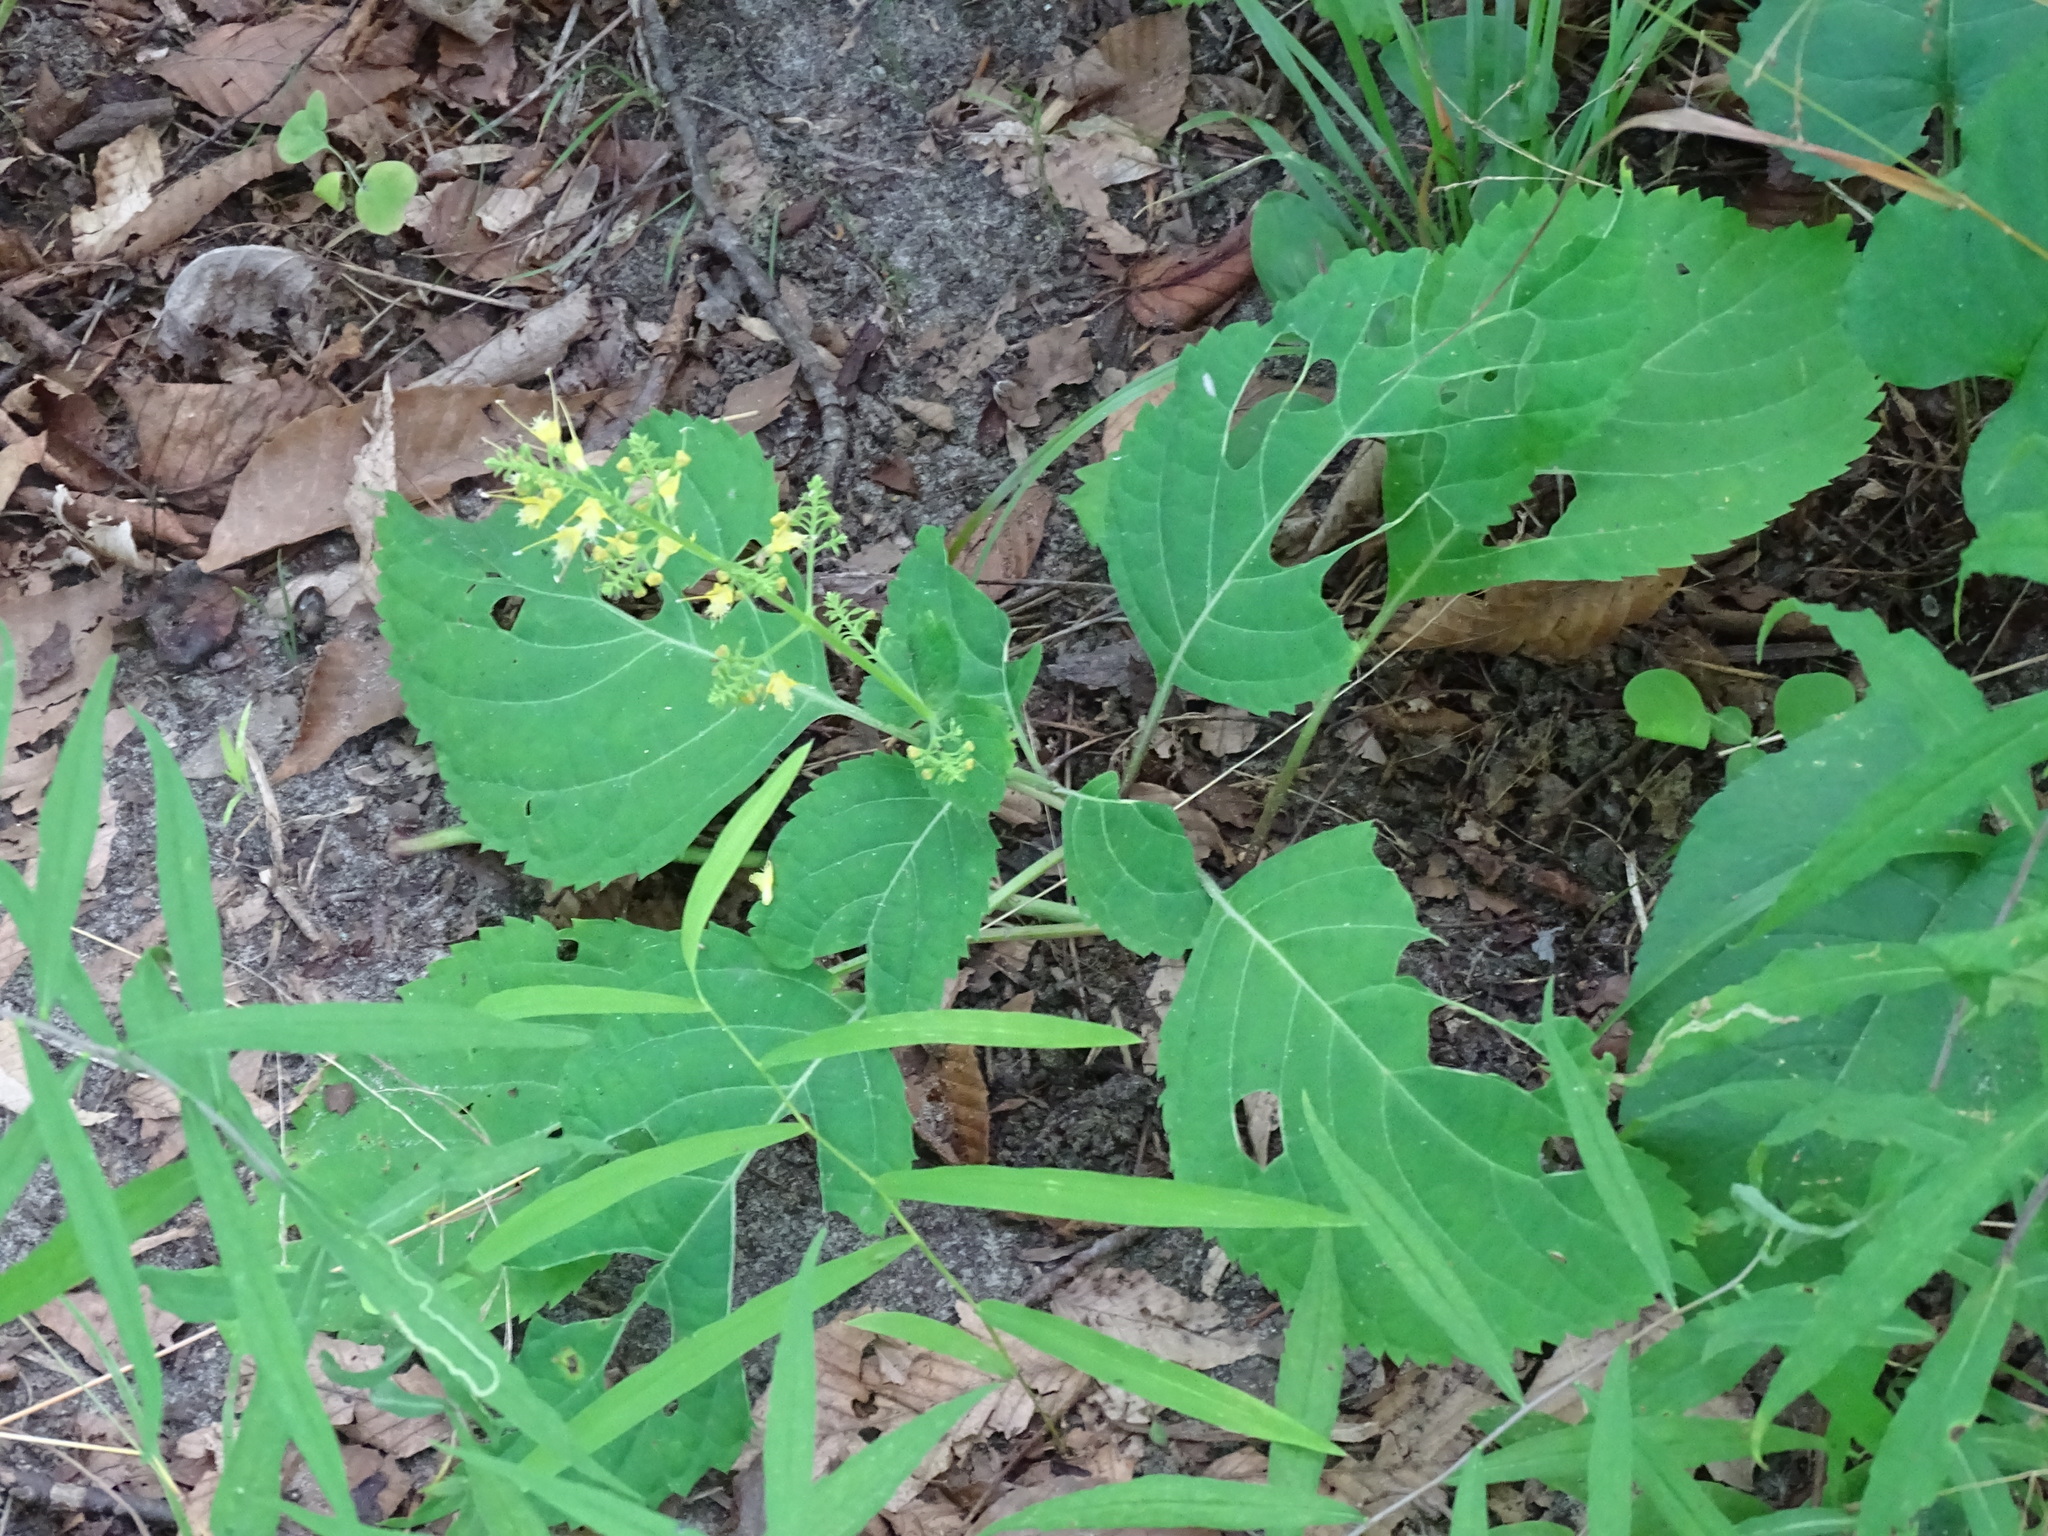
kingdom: Plantae
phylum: Tracheophyta
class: Magnoliopsida
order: Lamiales
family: Lamiaceae
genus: Collinsonia
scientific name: Collinsonia canadensis
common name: Northern horsebalm
